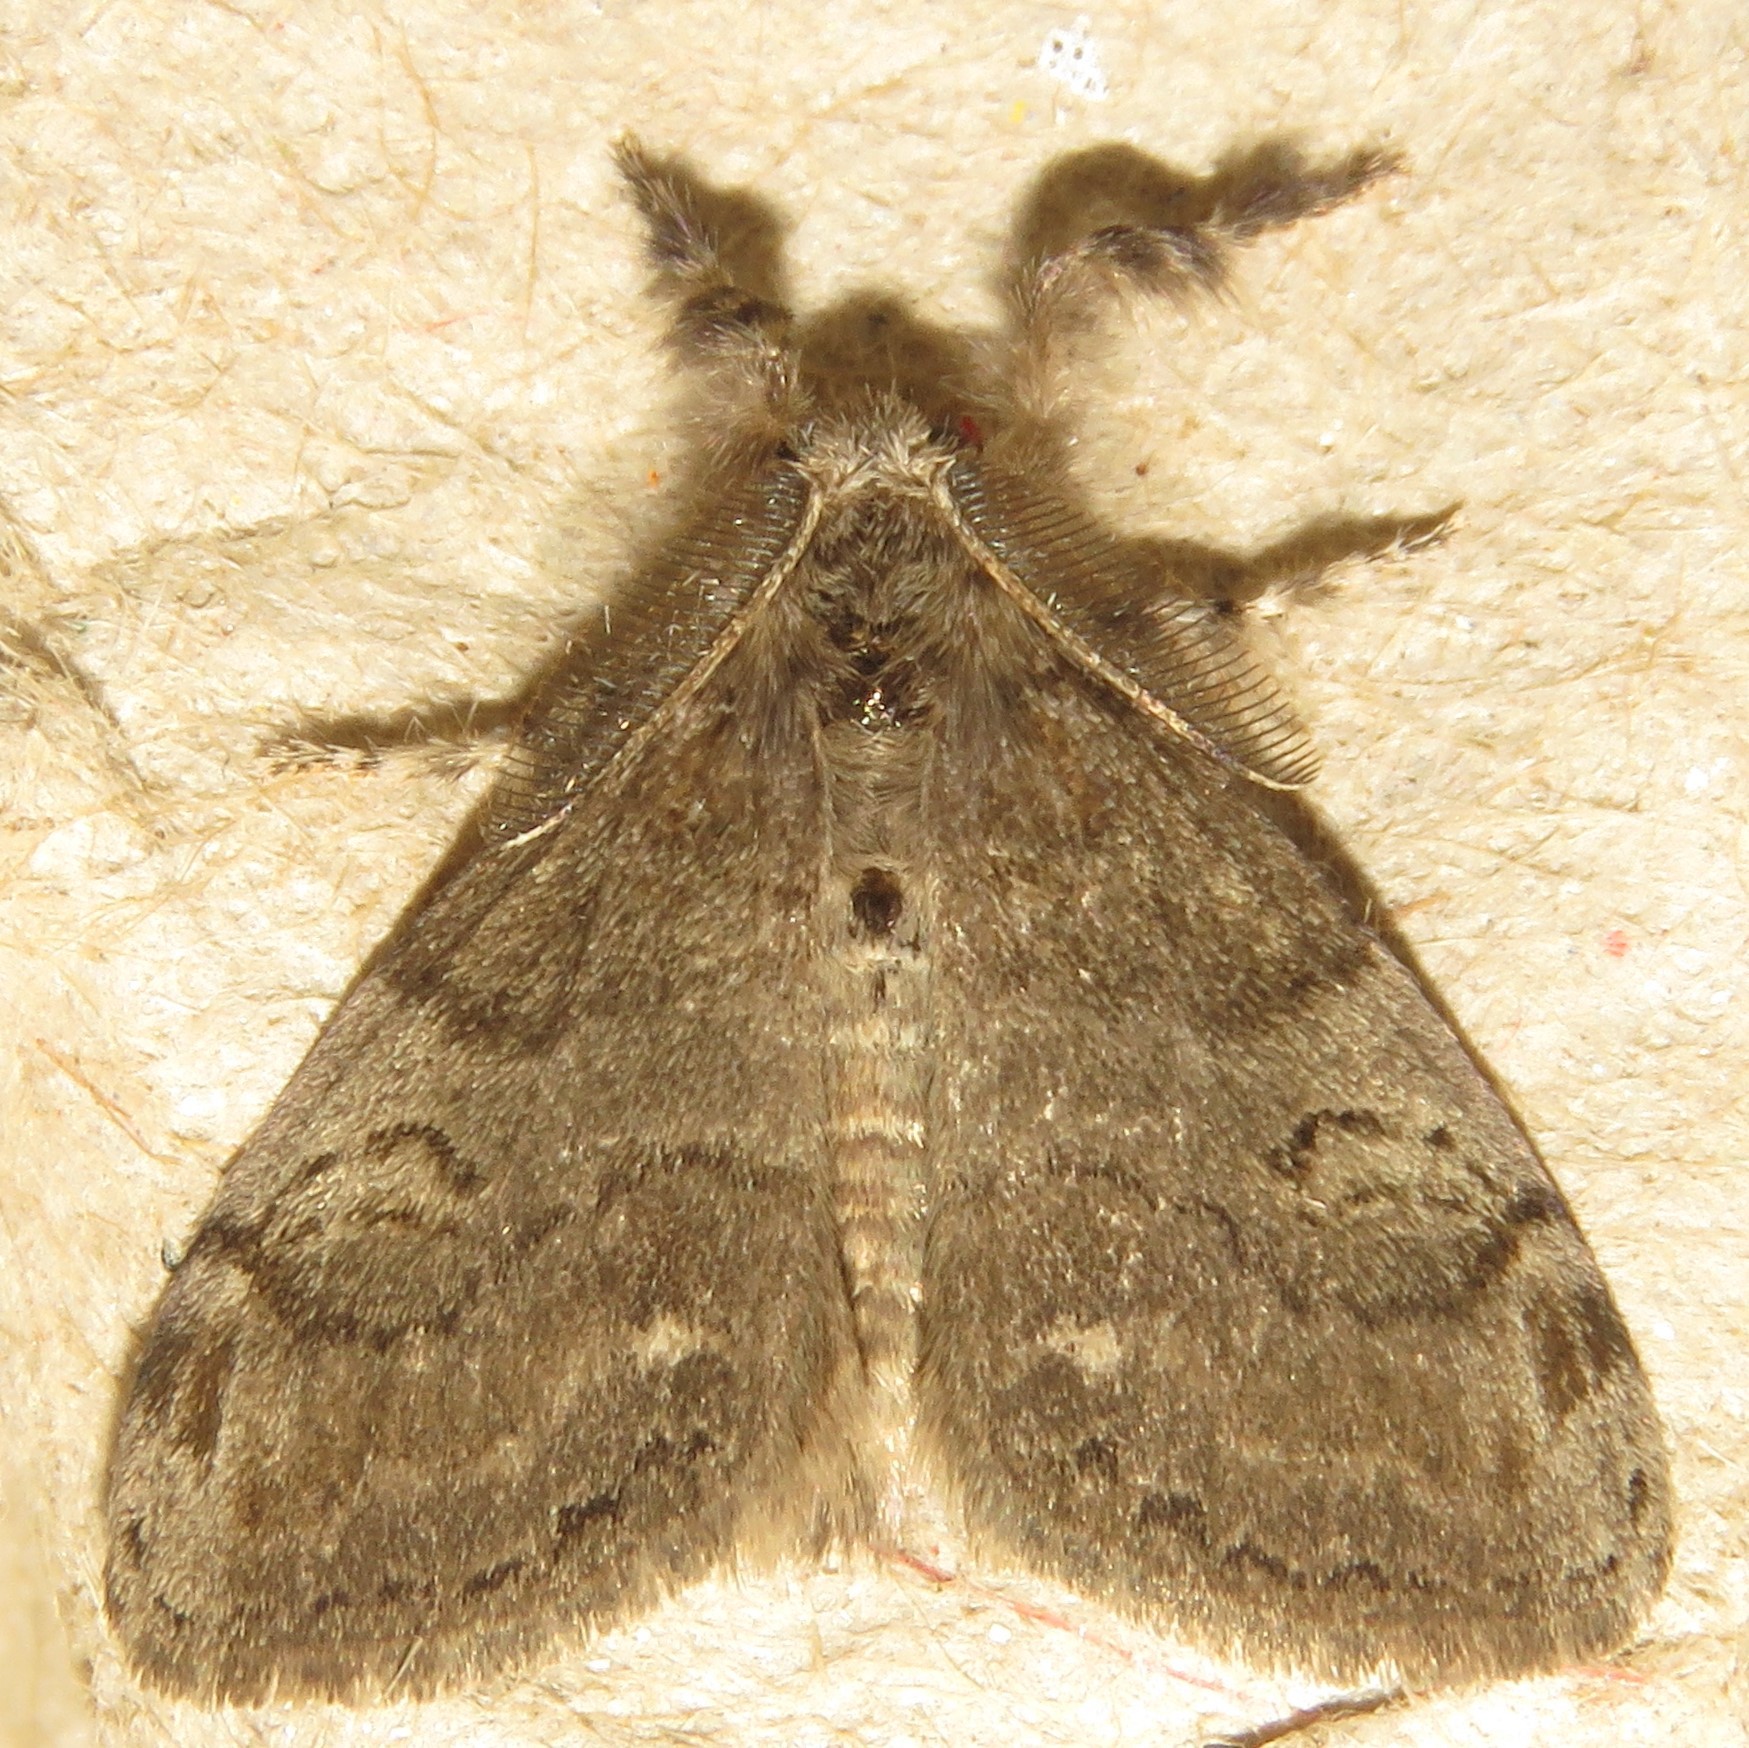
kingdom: Animalia
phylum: Arthropoda
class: Insecta
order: Lepidoptera
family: Erebidae
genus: Orgyia
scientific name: Orgyia leucostigma
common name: White-marked tussock moth
